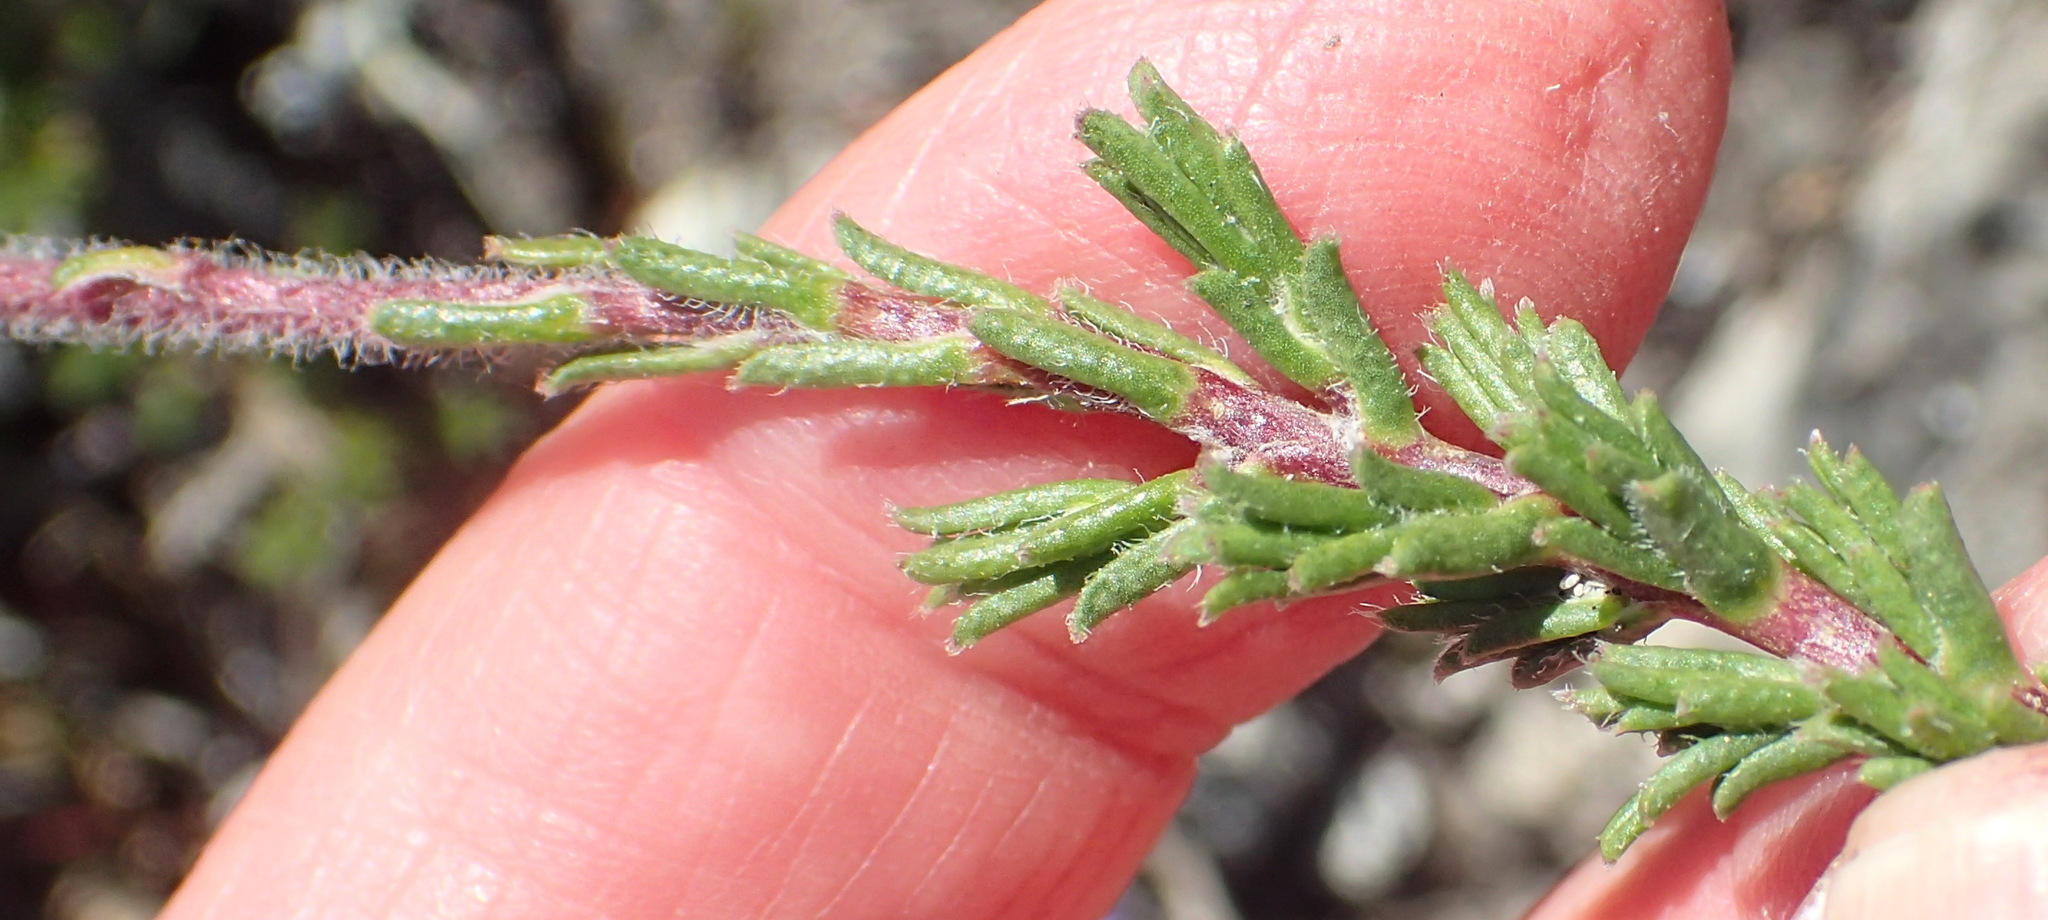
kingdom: Plantae
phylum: Tracheophyta
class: Magnoliopsida
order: Asterales
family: Asteraceae
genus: Felicia
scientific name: Felicia canaliculata
